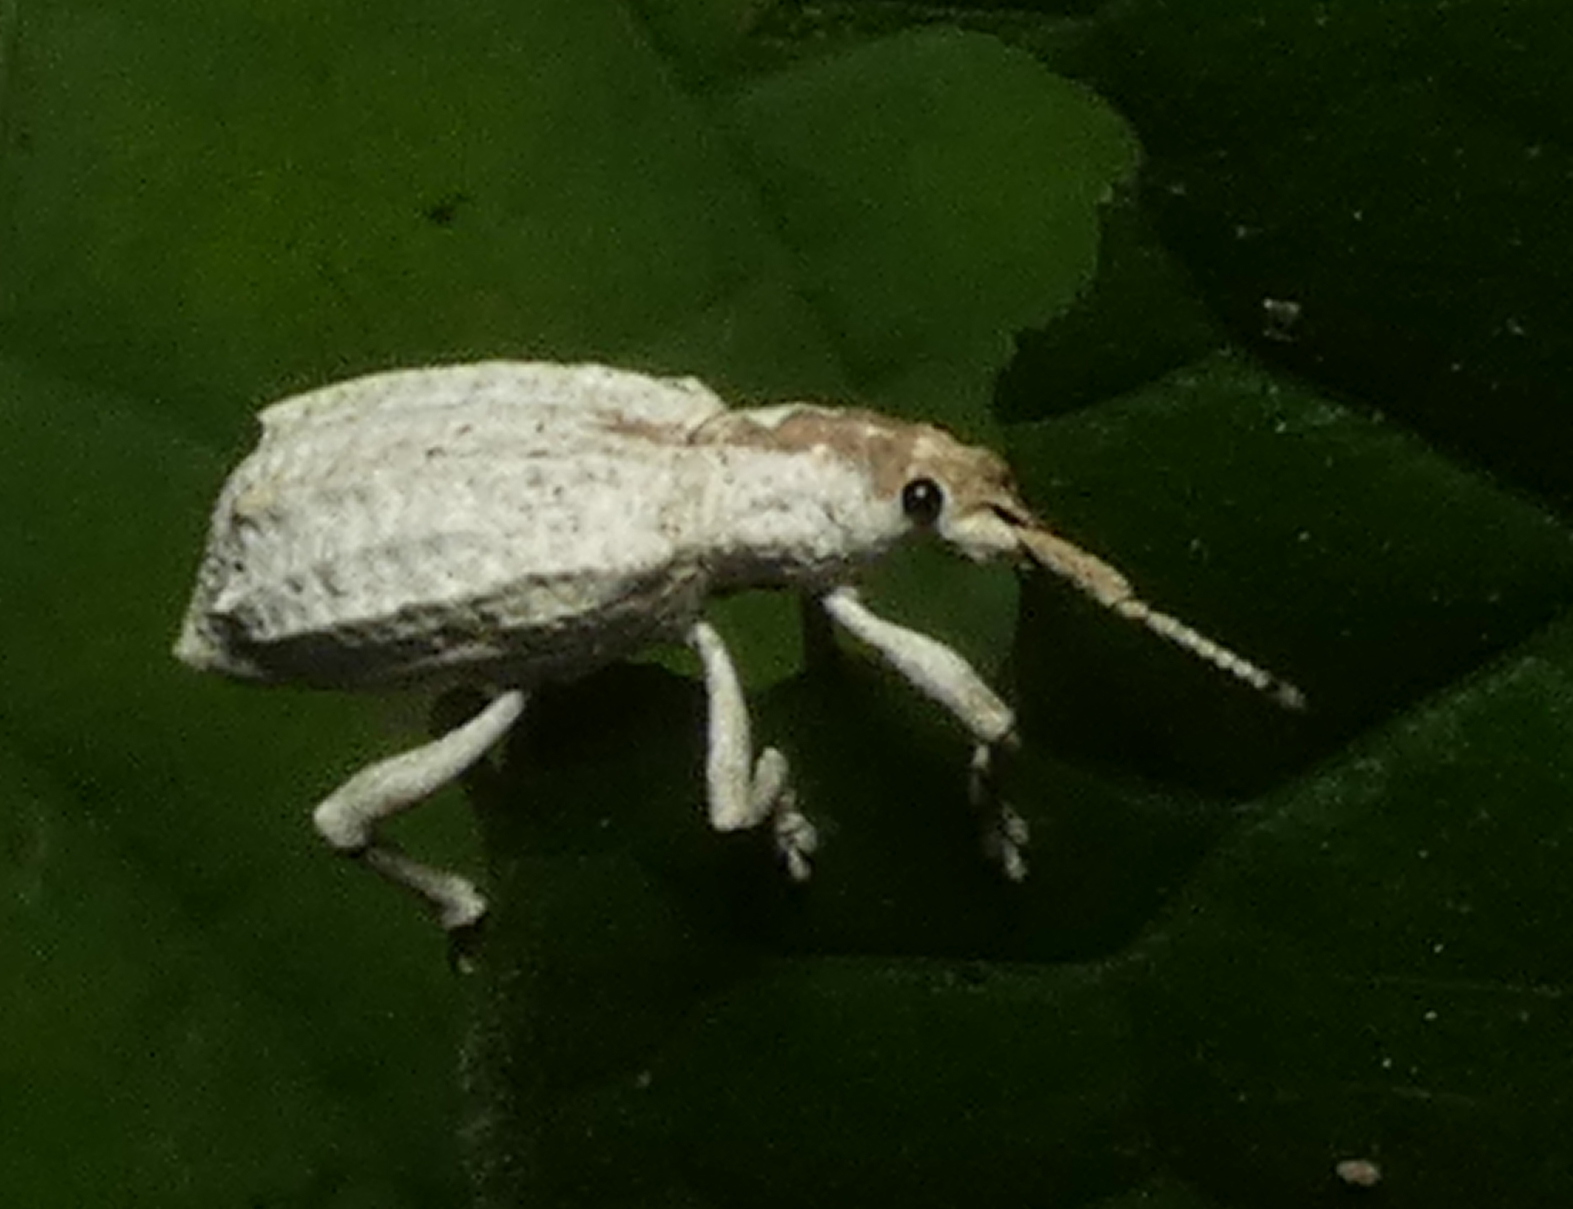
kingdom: Animalia
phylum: Arthropoda
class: Insecta
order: Coleoptera
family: Curculionidae
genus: Compsus
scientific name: Compsus niveus
